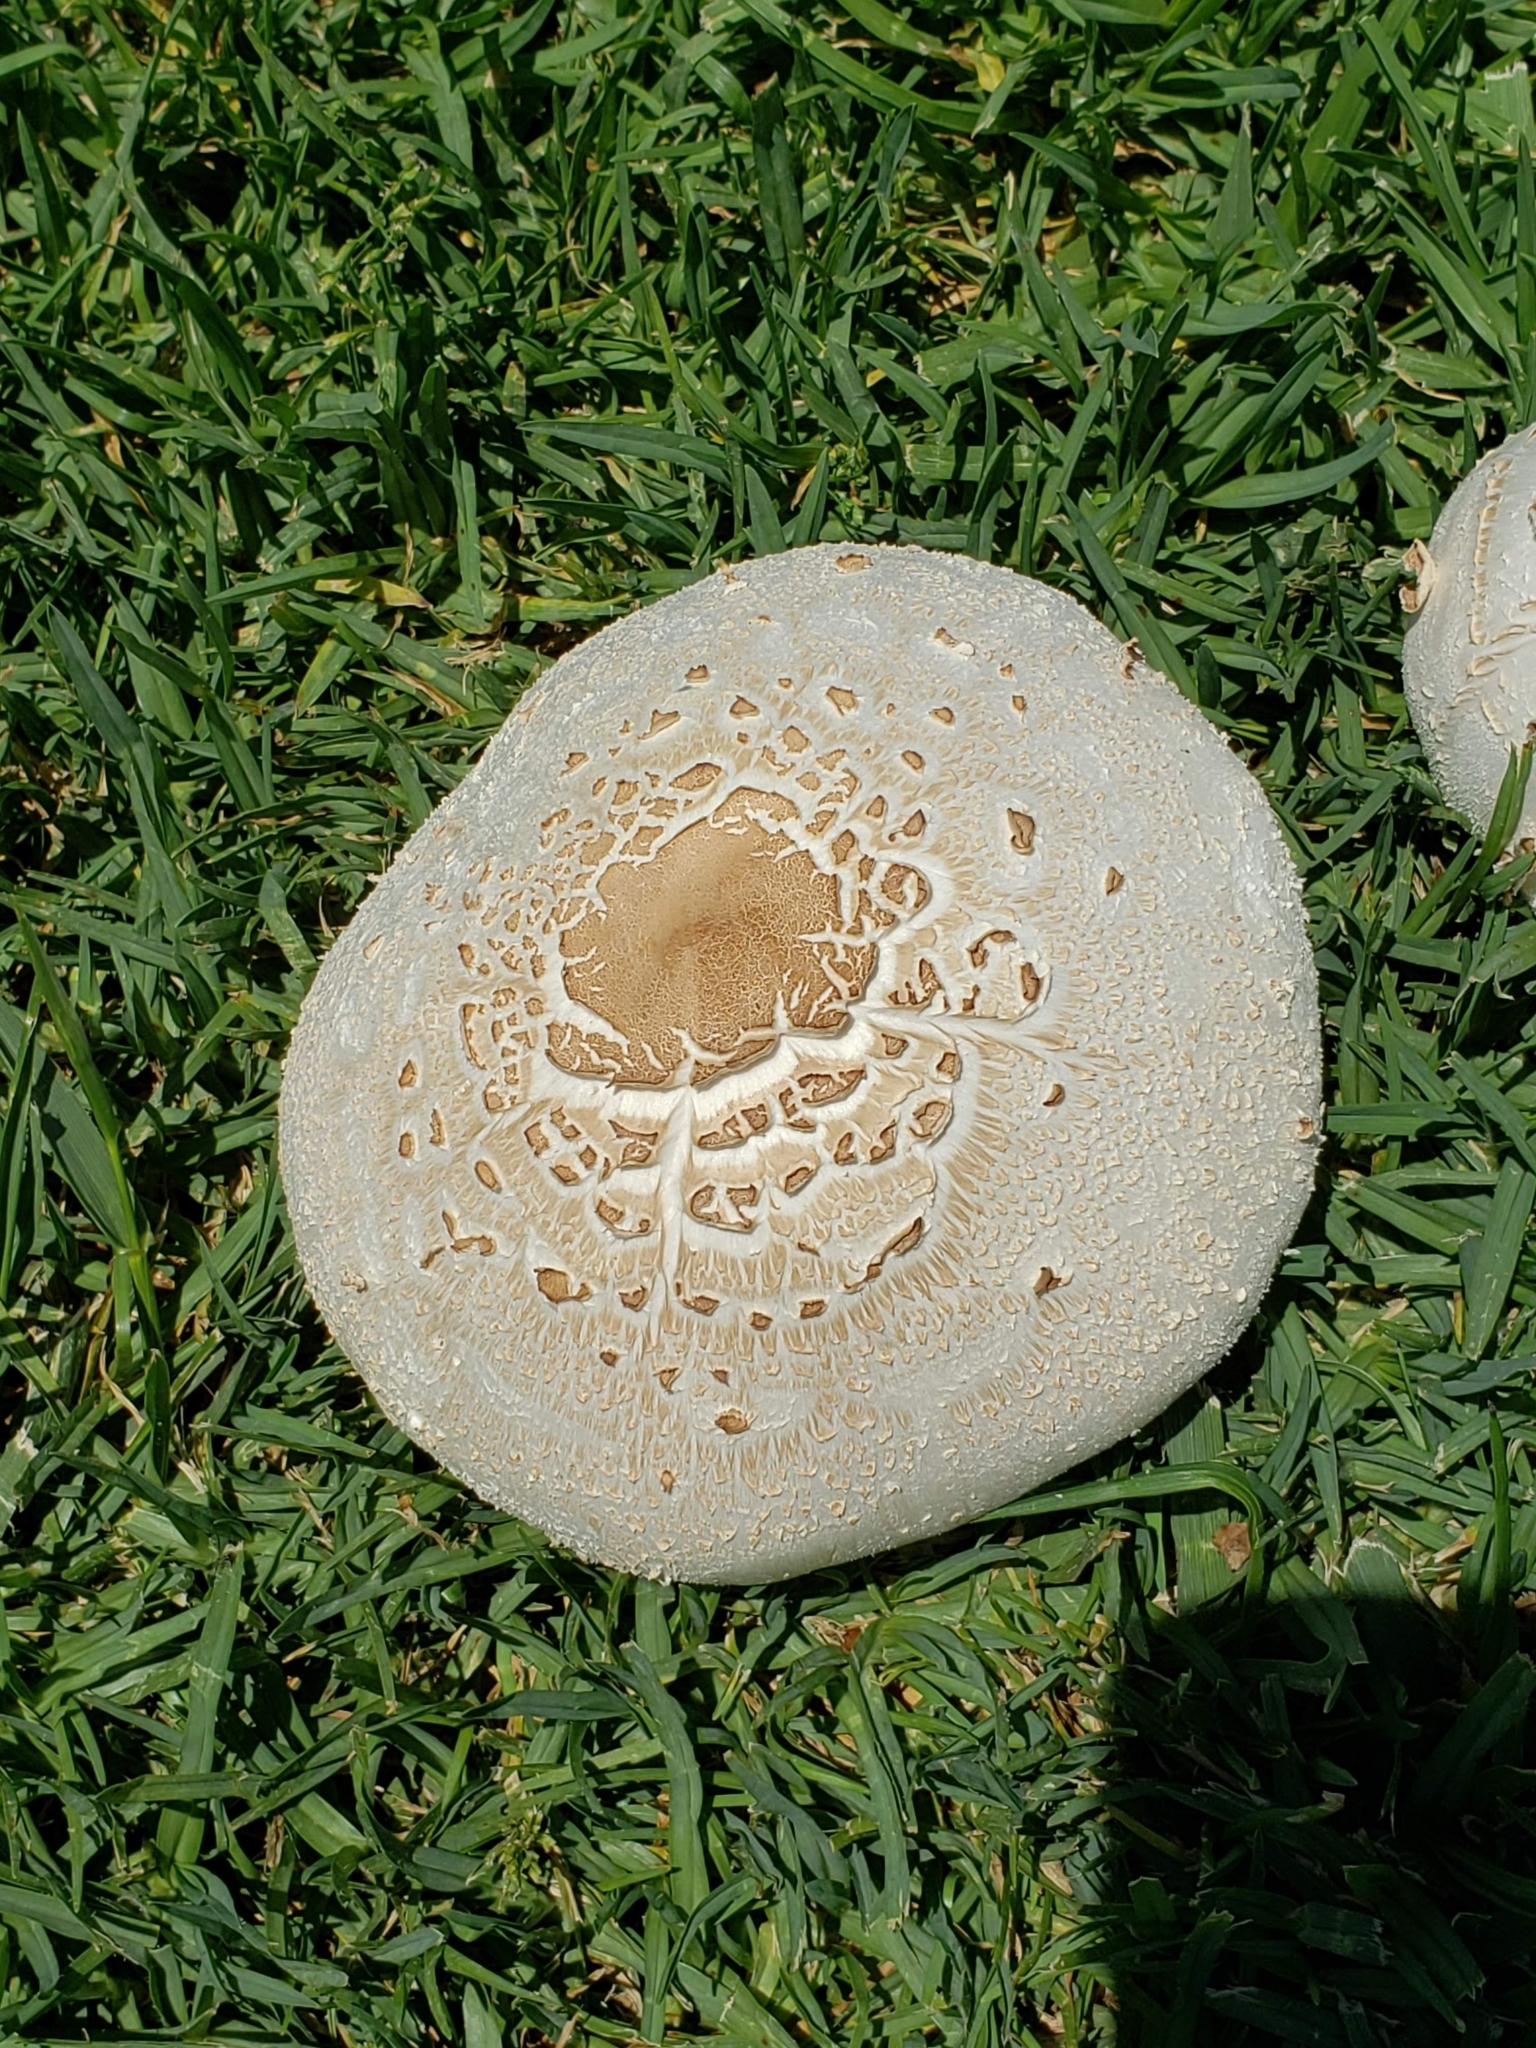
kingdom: Fungi
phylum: Basidiomycota
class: Agaricomycetes
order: Agaricales
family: Agaricaceae
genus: Chlorophyllum
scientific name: Chlorophyllum molybdites
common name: False parasol
